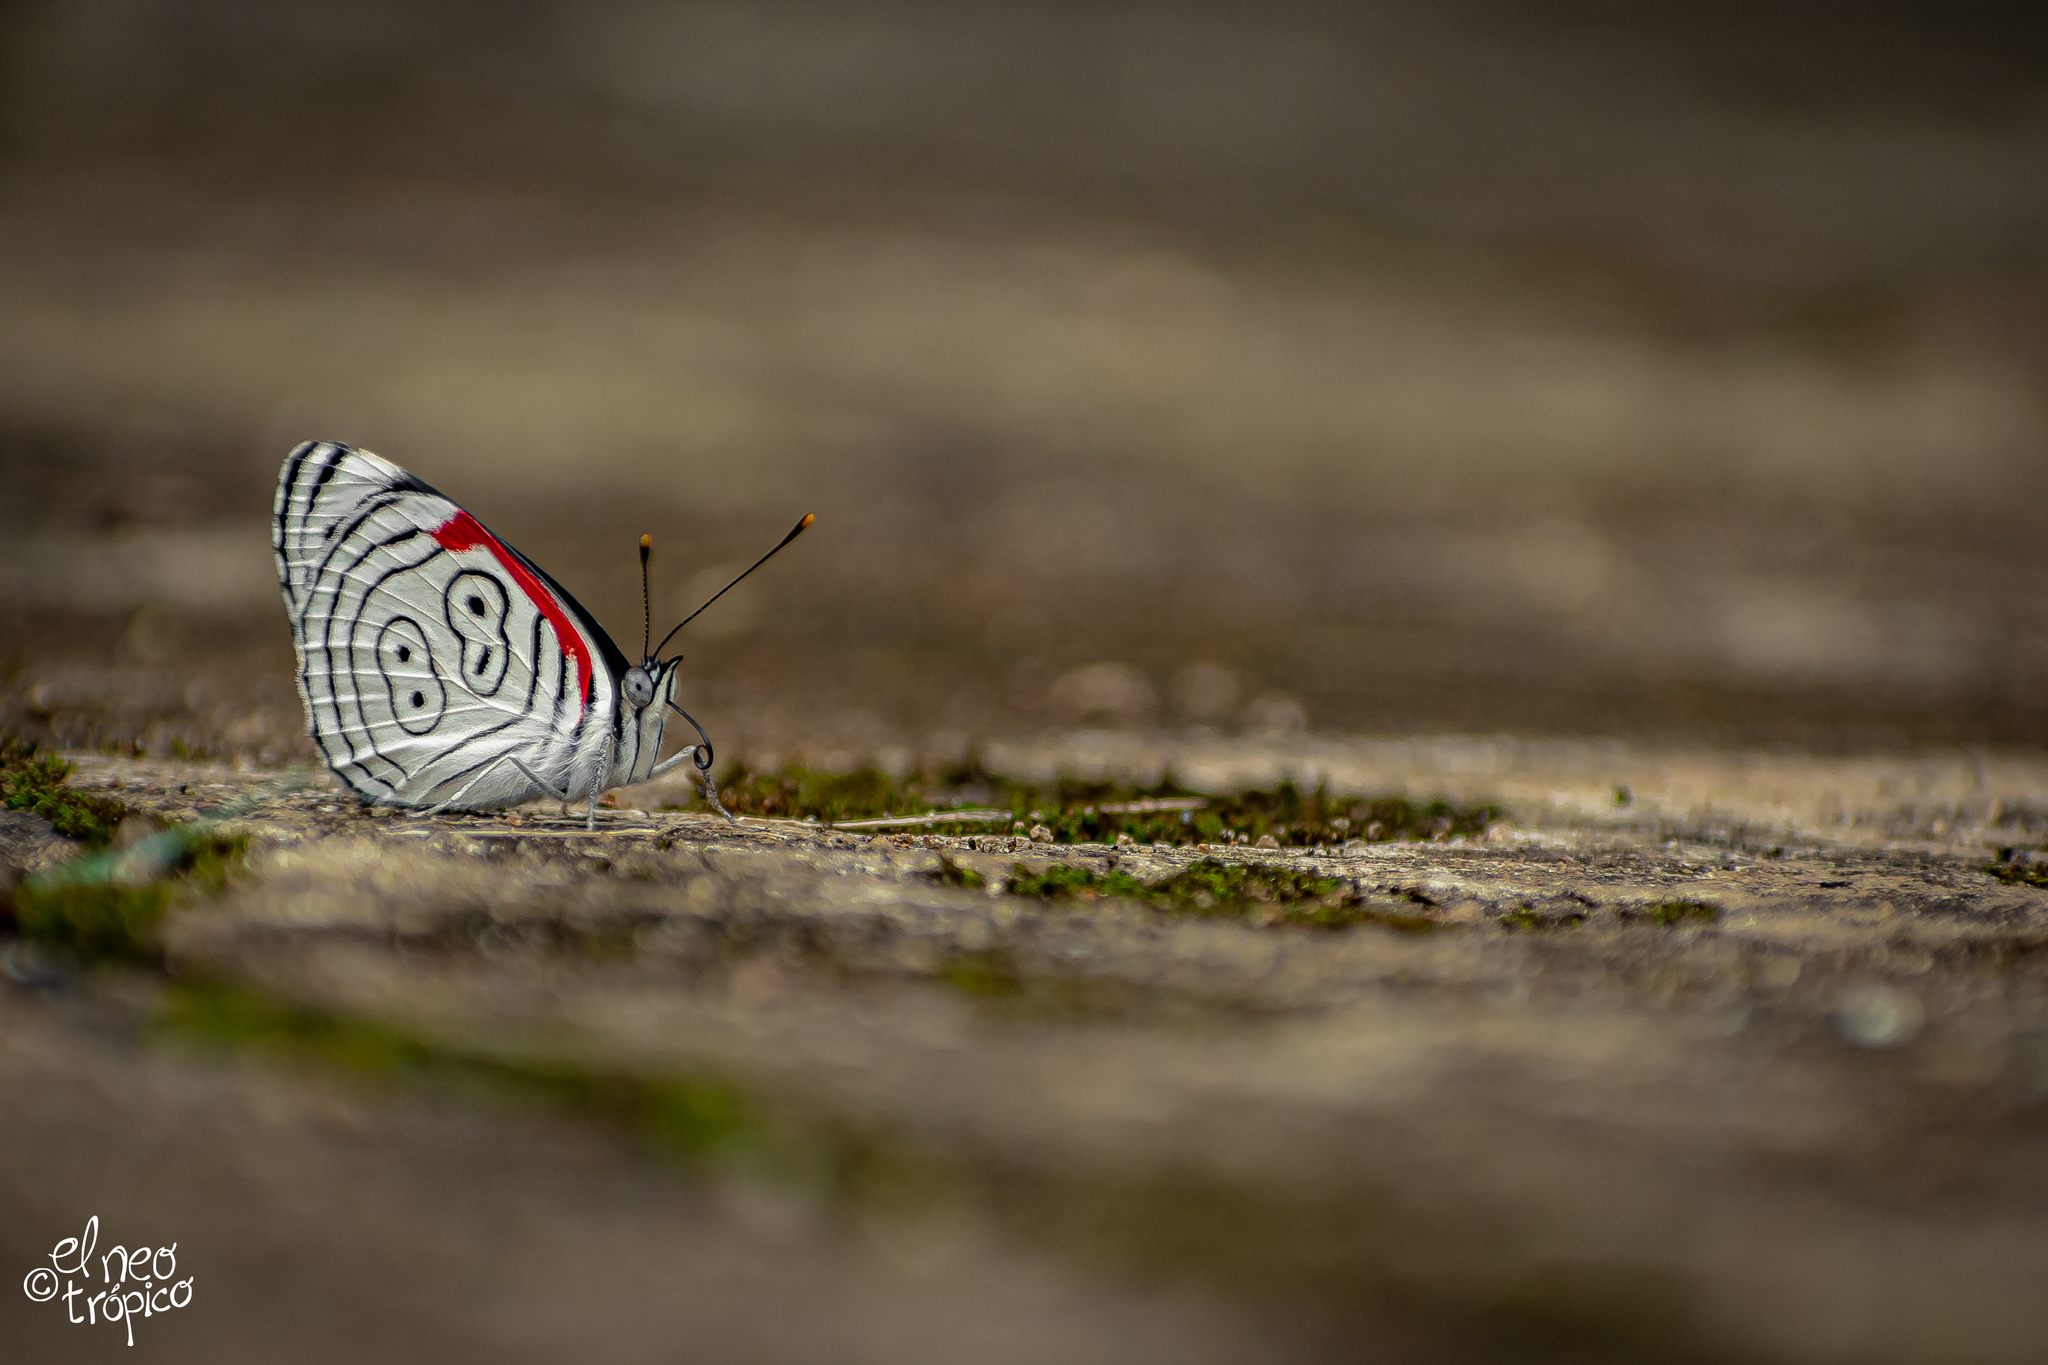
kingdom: Animalia
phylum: Arthropoda
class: Insecta
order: Lepidoptera
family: Nymphalidae
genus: Diaethria
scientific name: Diaethria anna
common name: Anna’s eighty-eight
